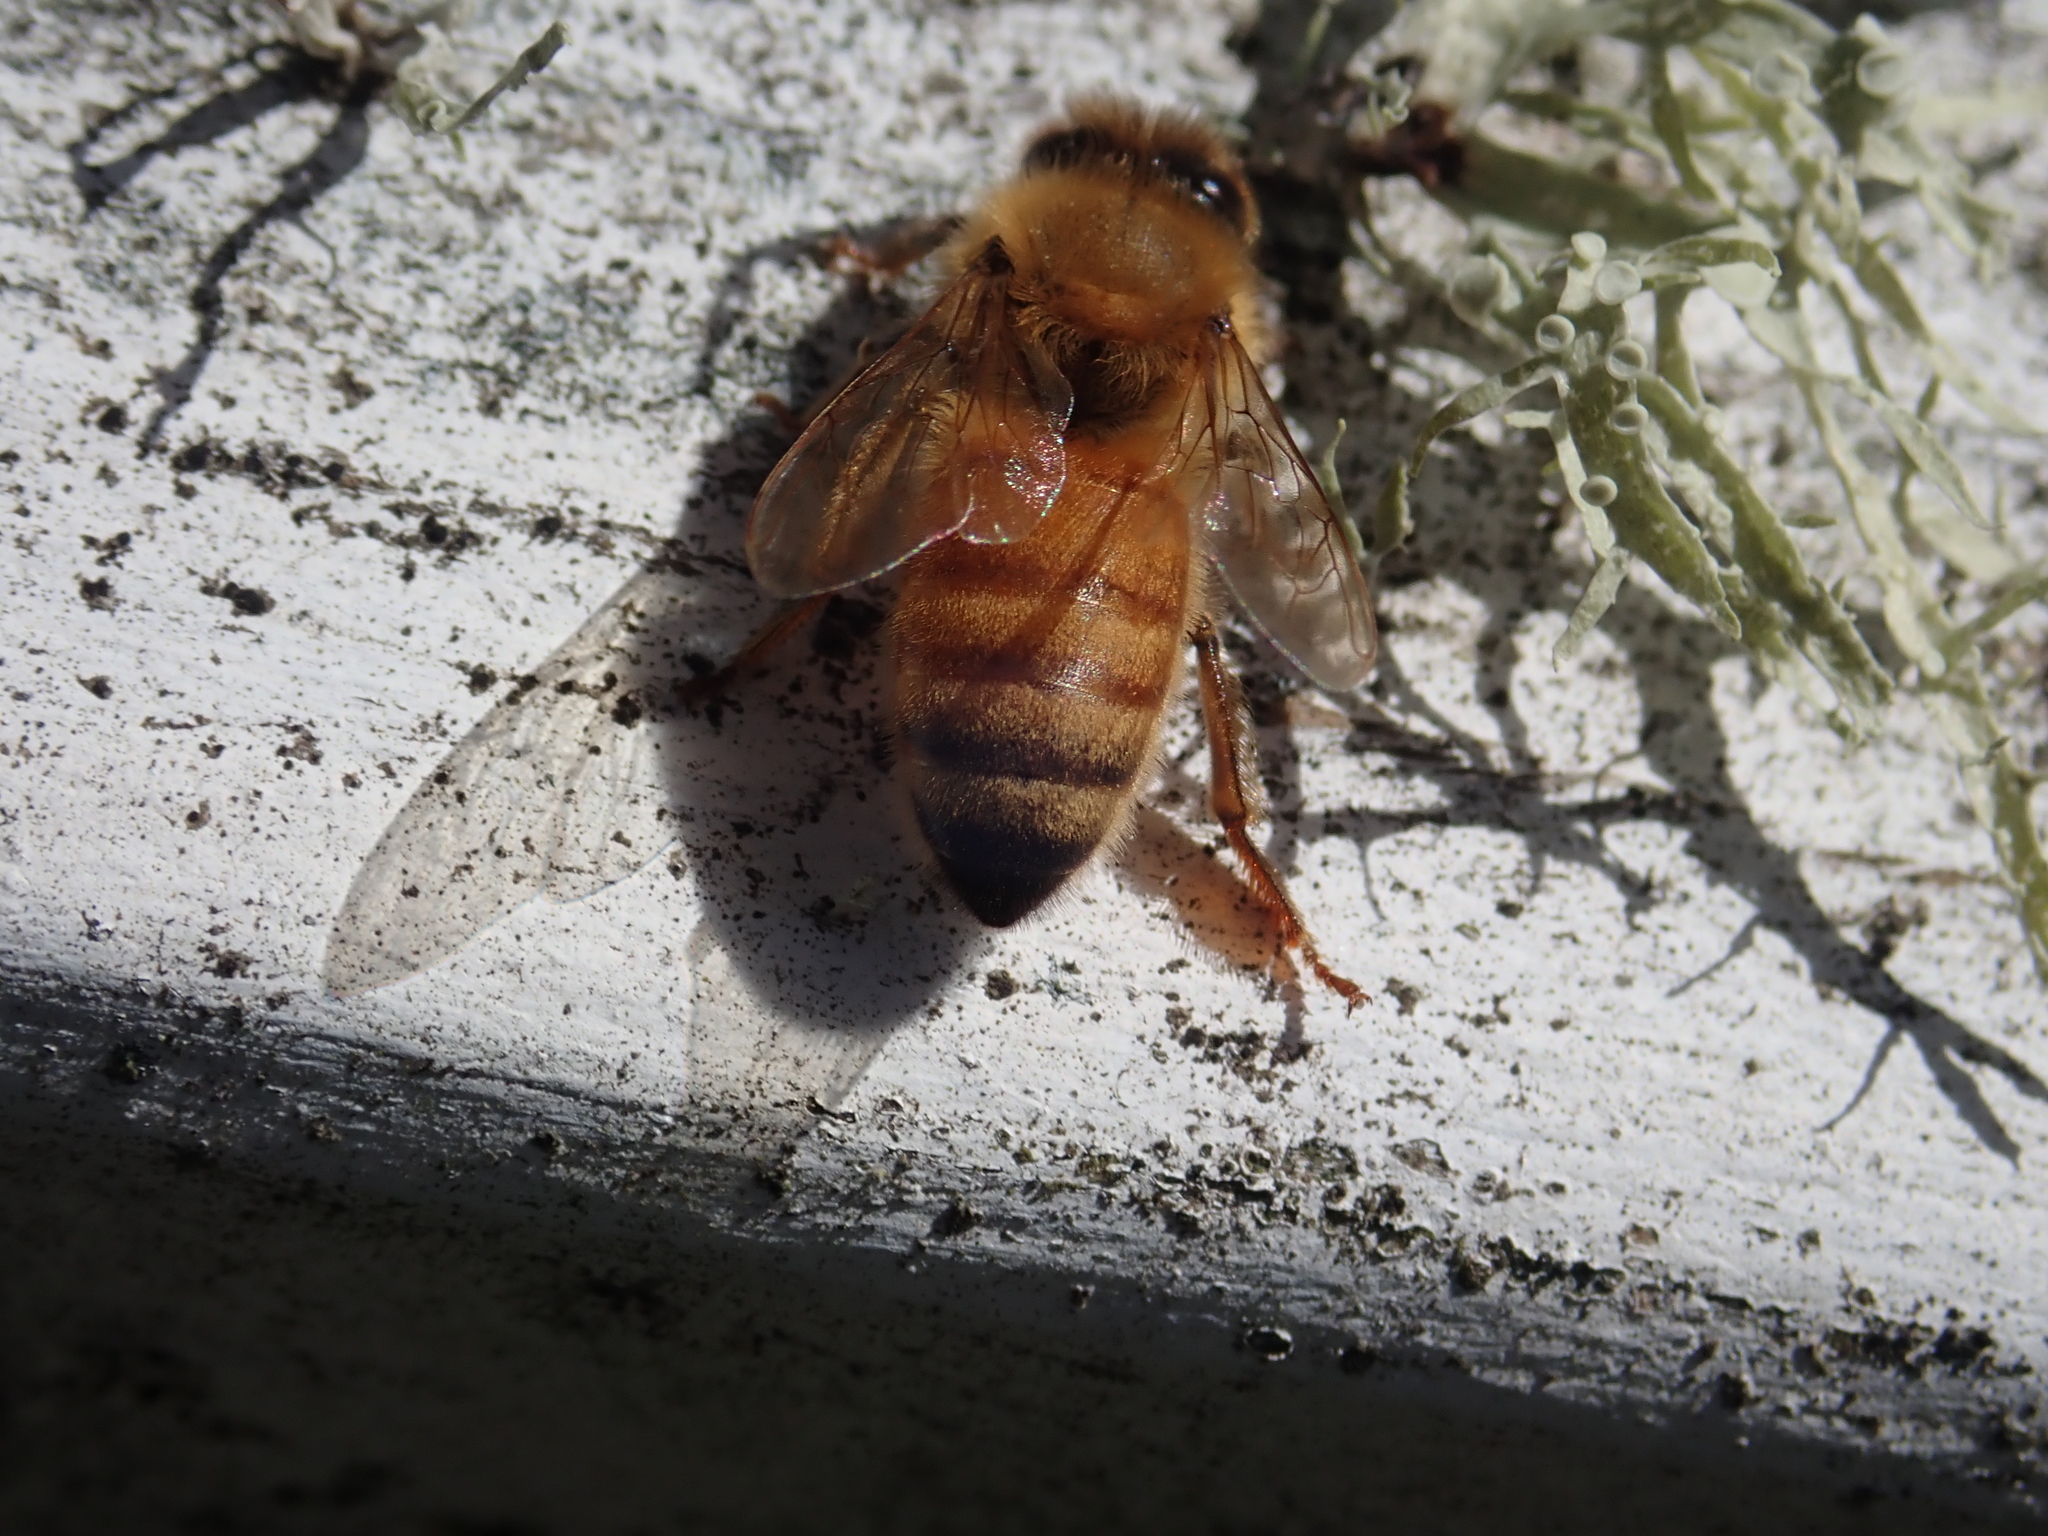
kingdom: Animalia
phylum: Arthropoda
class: Insecta
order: Hymenoptera
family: Apidae
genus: Apis
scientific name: Apis mellifera
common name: Honey bee
